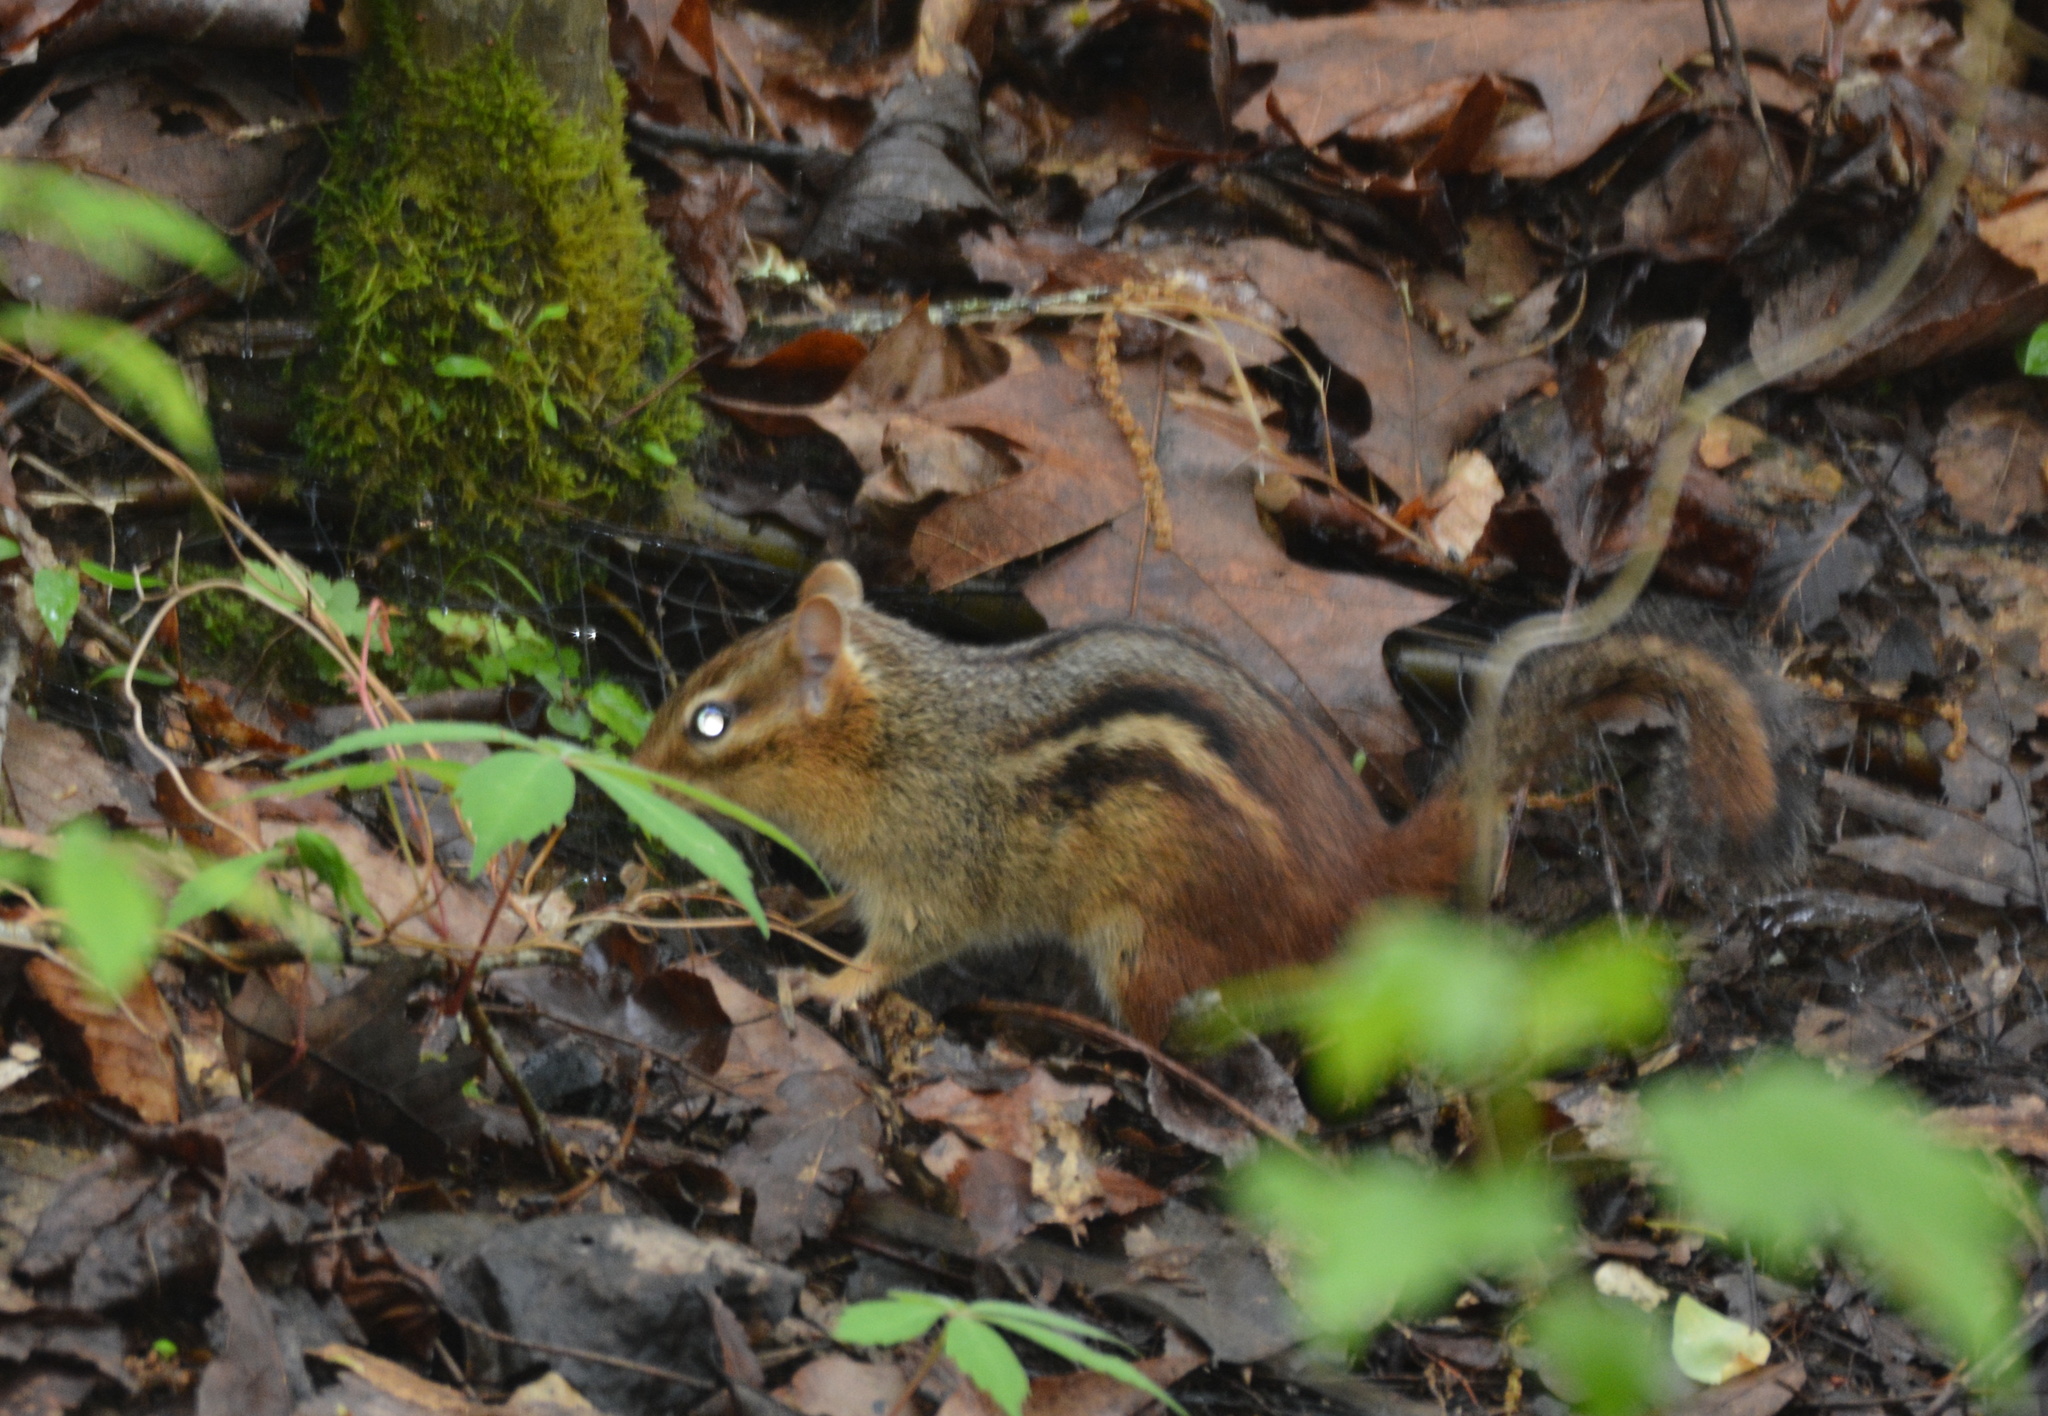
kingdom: Animalia
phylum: Chordata
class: Mammalia
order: Rodentia
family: Sciuridae
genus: Tamias
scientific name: Tamias striatus
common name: Eastern chipmunk
